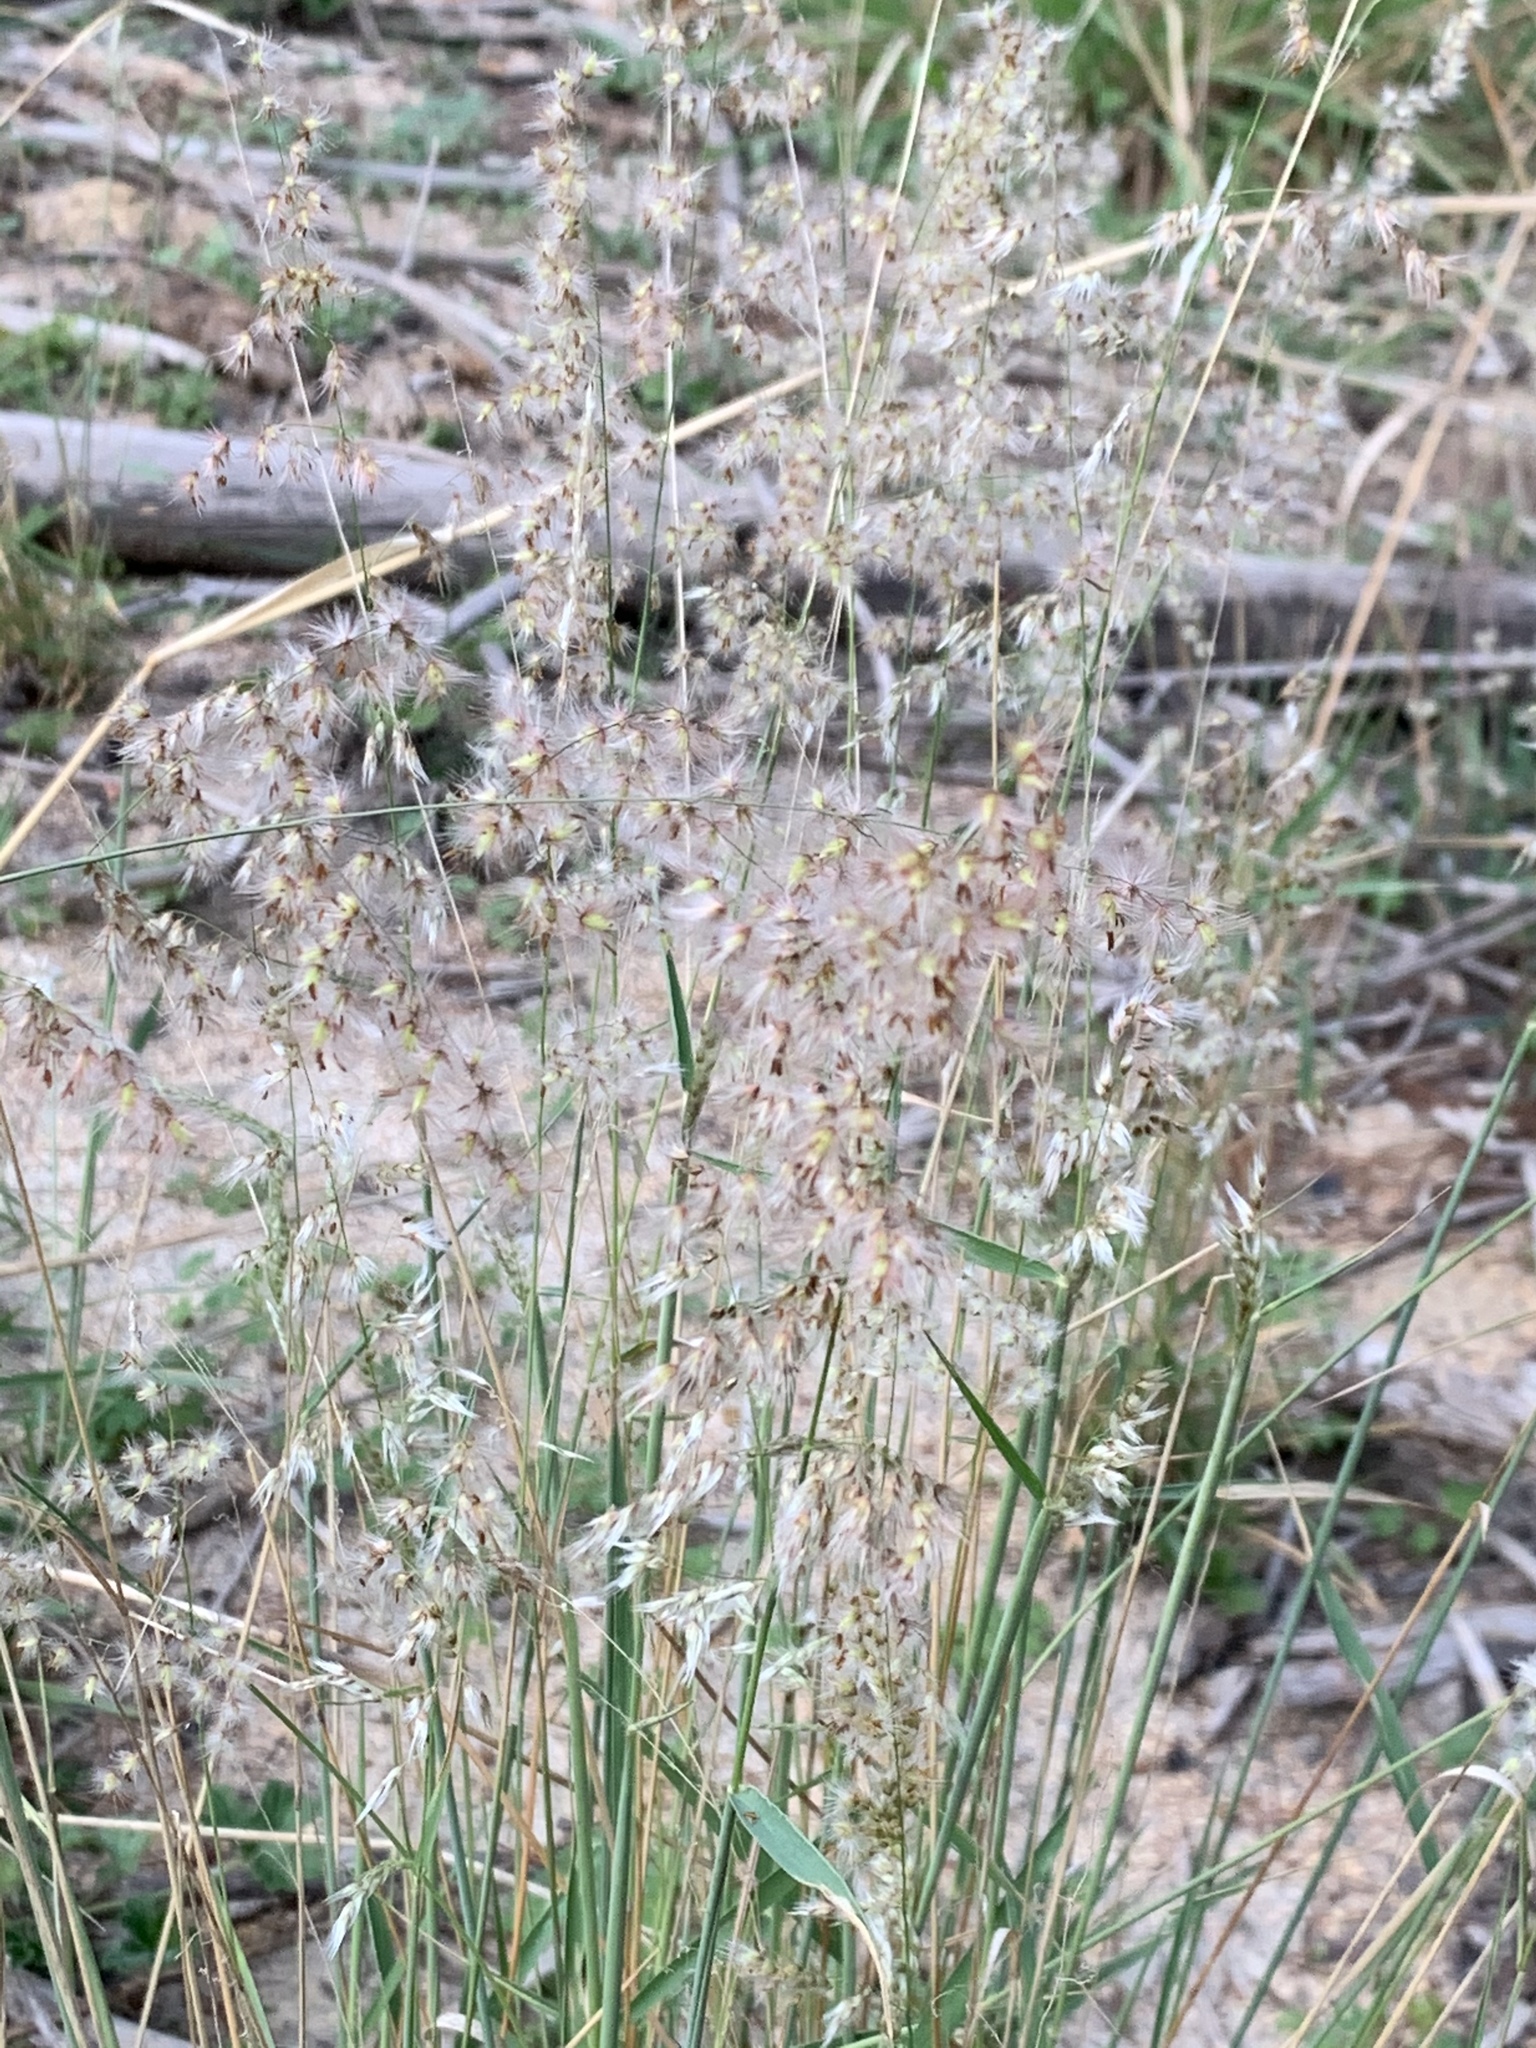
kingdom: Plantae
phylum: Tracheophyta
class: Liliopsida
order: Poales
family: Poaceae
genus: Melinis
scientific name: Melinis repens
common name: Rose natal grass
